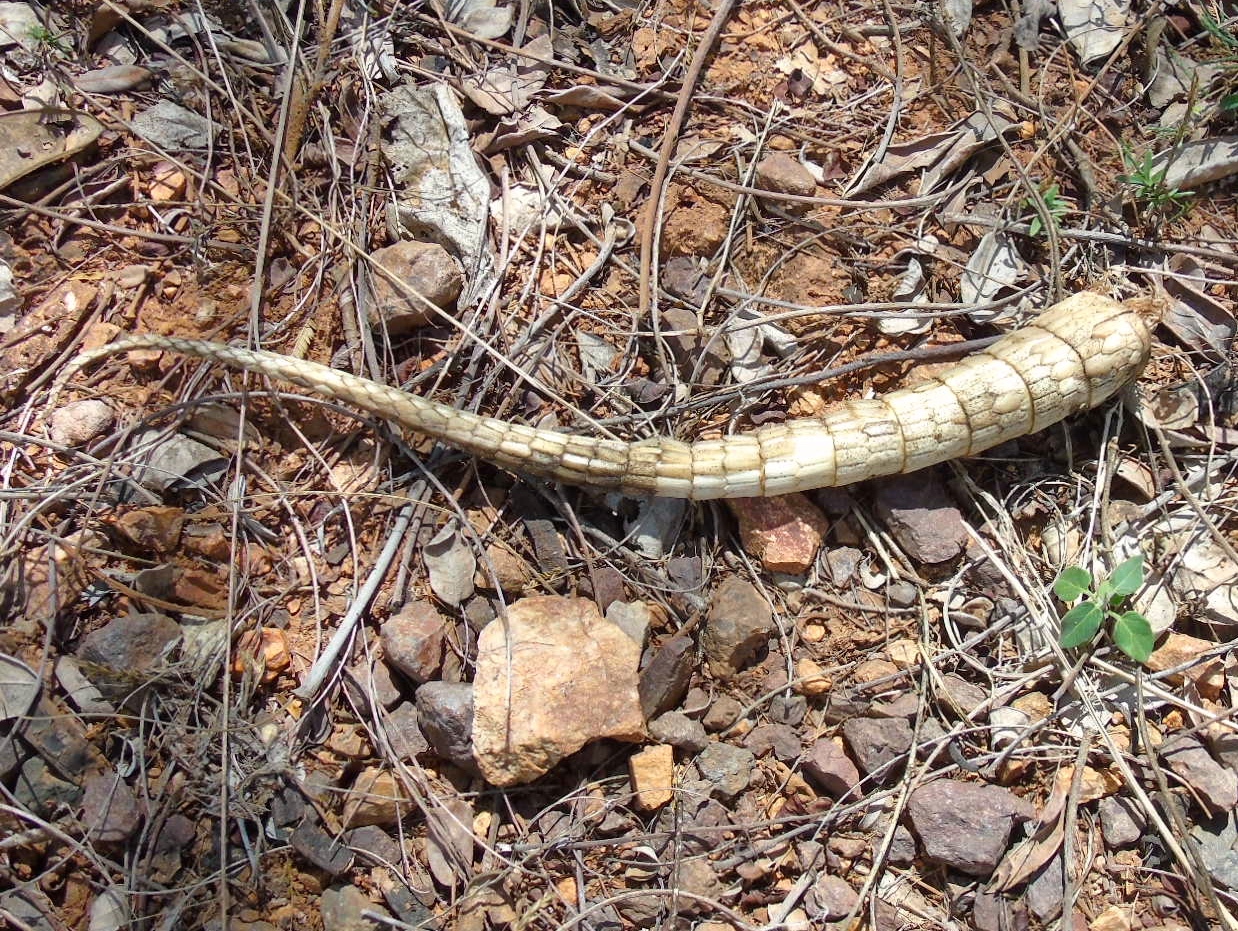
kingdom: Animalia
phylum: Chordata
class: Mammalia
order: Cingulata
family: Dasypodidae
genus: Dasypus
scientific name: Dasypus novemcinctus
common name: Nine-banded armadillo
